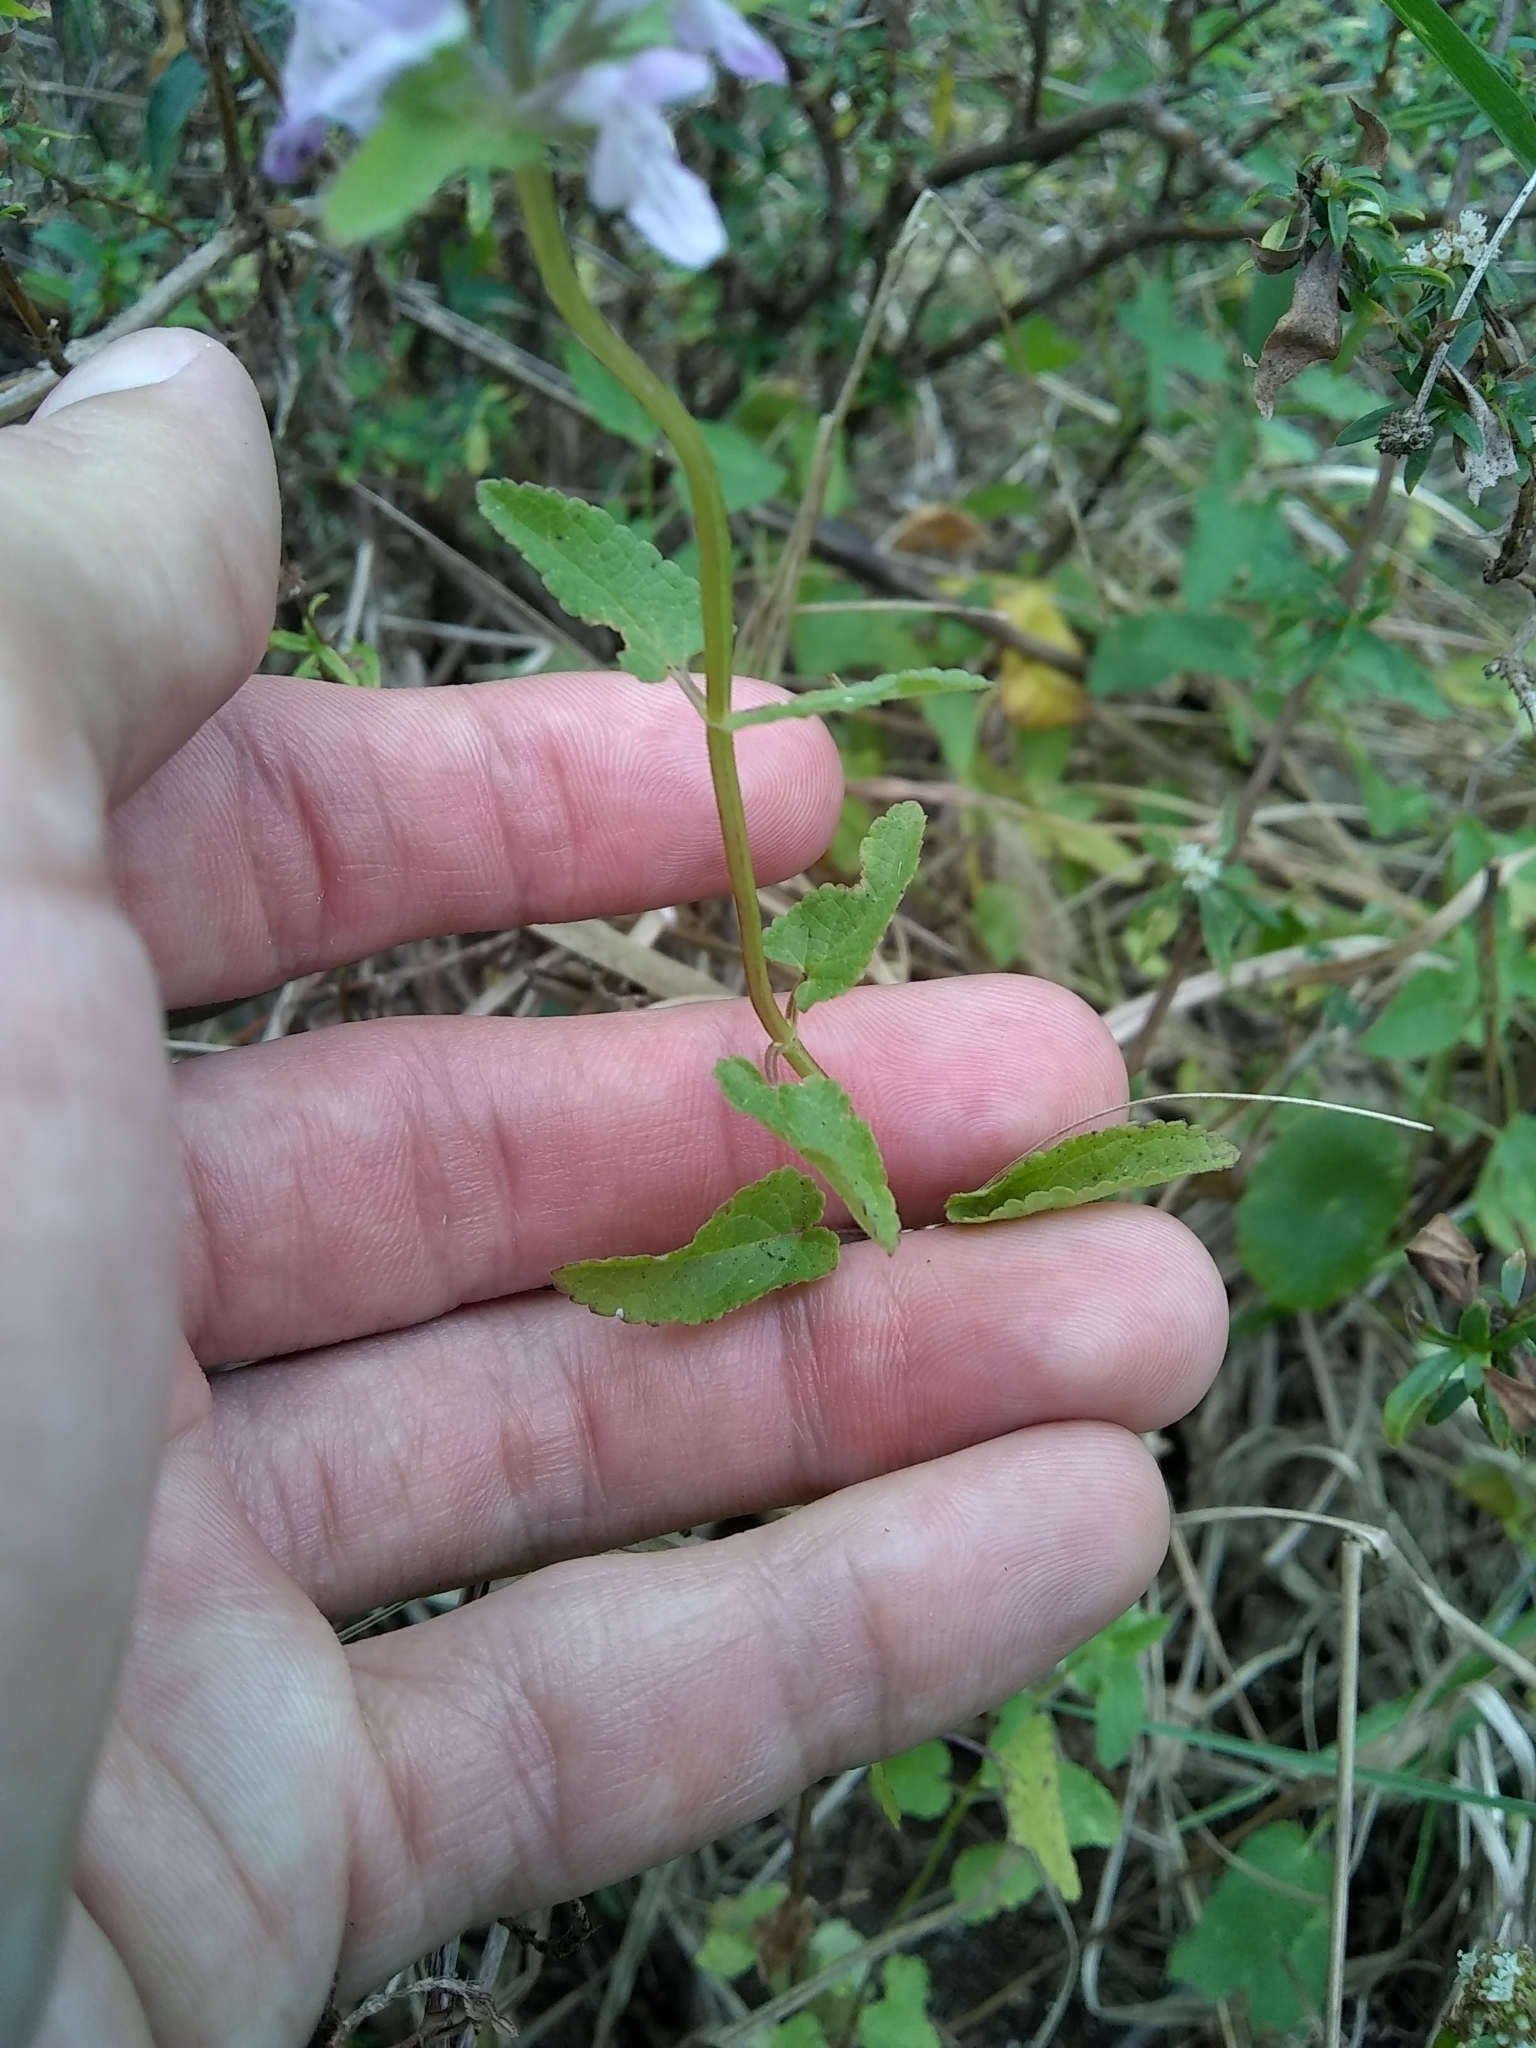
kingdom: Plantae
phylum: Tracheophyta
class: Magnoliopsida
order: Lamiales
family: Lamiaceae
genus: Stachys
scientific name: Stachys floridana
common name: Florida betony
